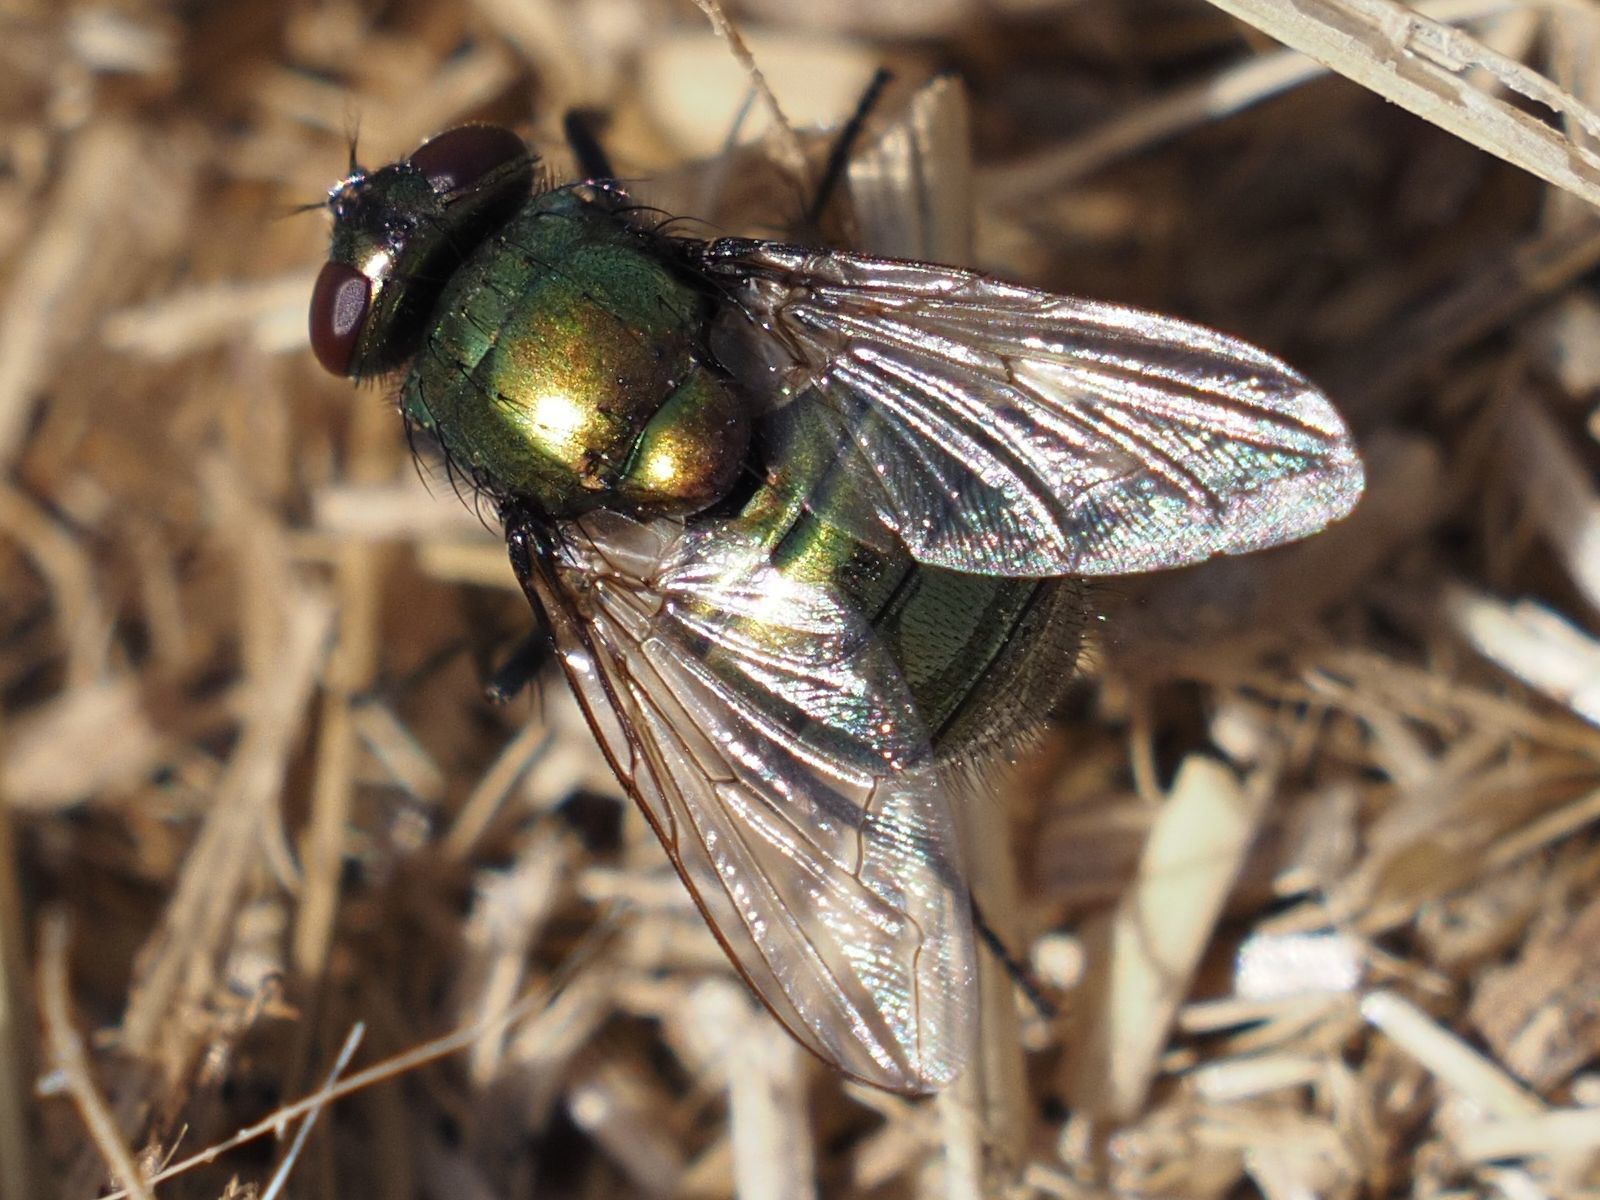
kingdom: Animalia
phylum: Arthropoda
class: Insecta
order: Diptera
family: Muscidae
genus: Neomyia
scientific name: Neomyia cornicina
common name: House fly
